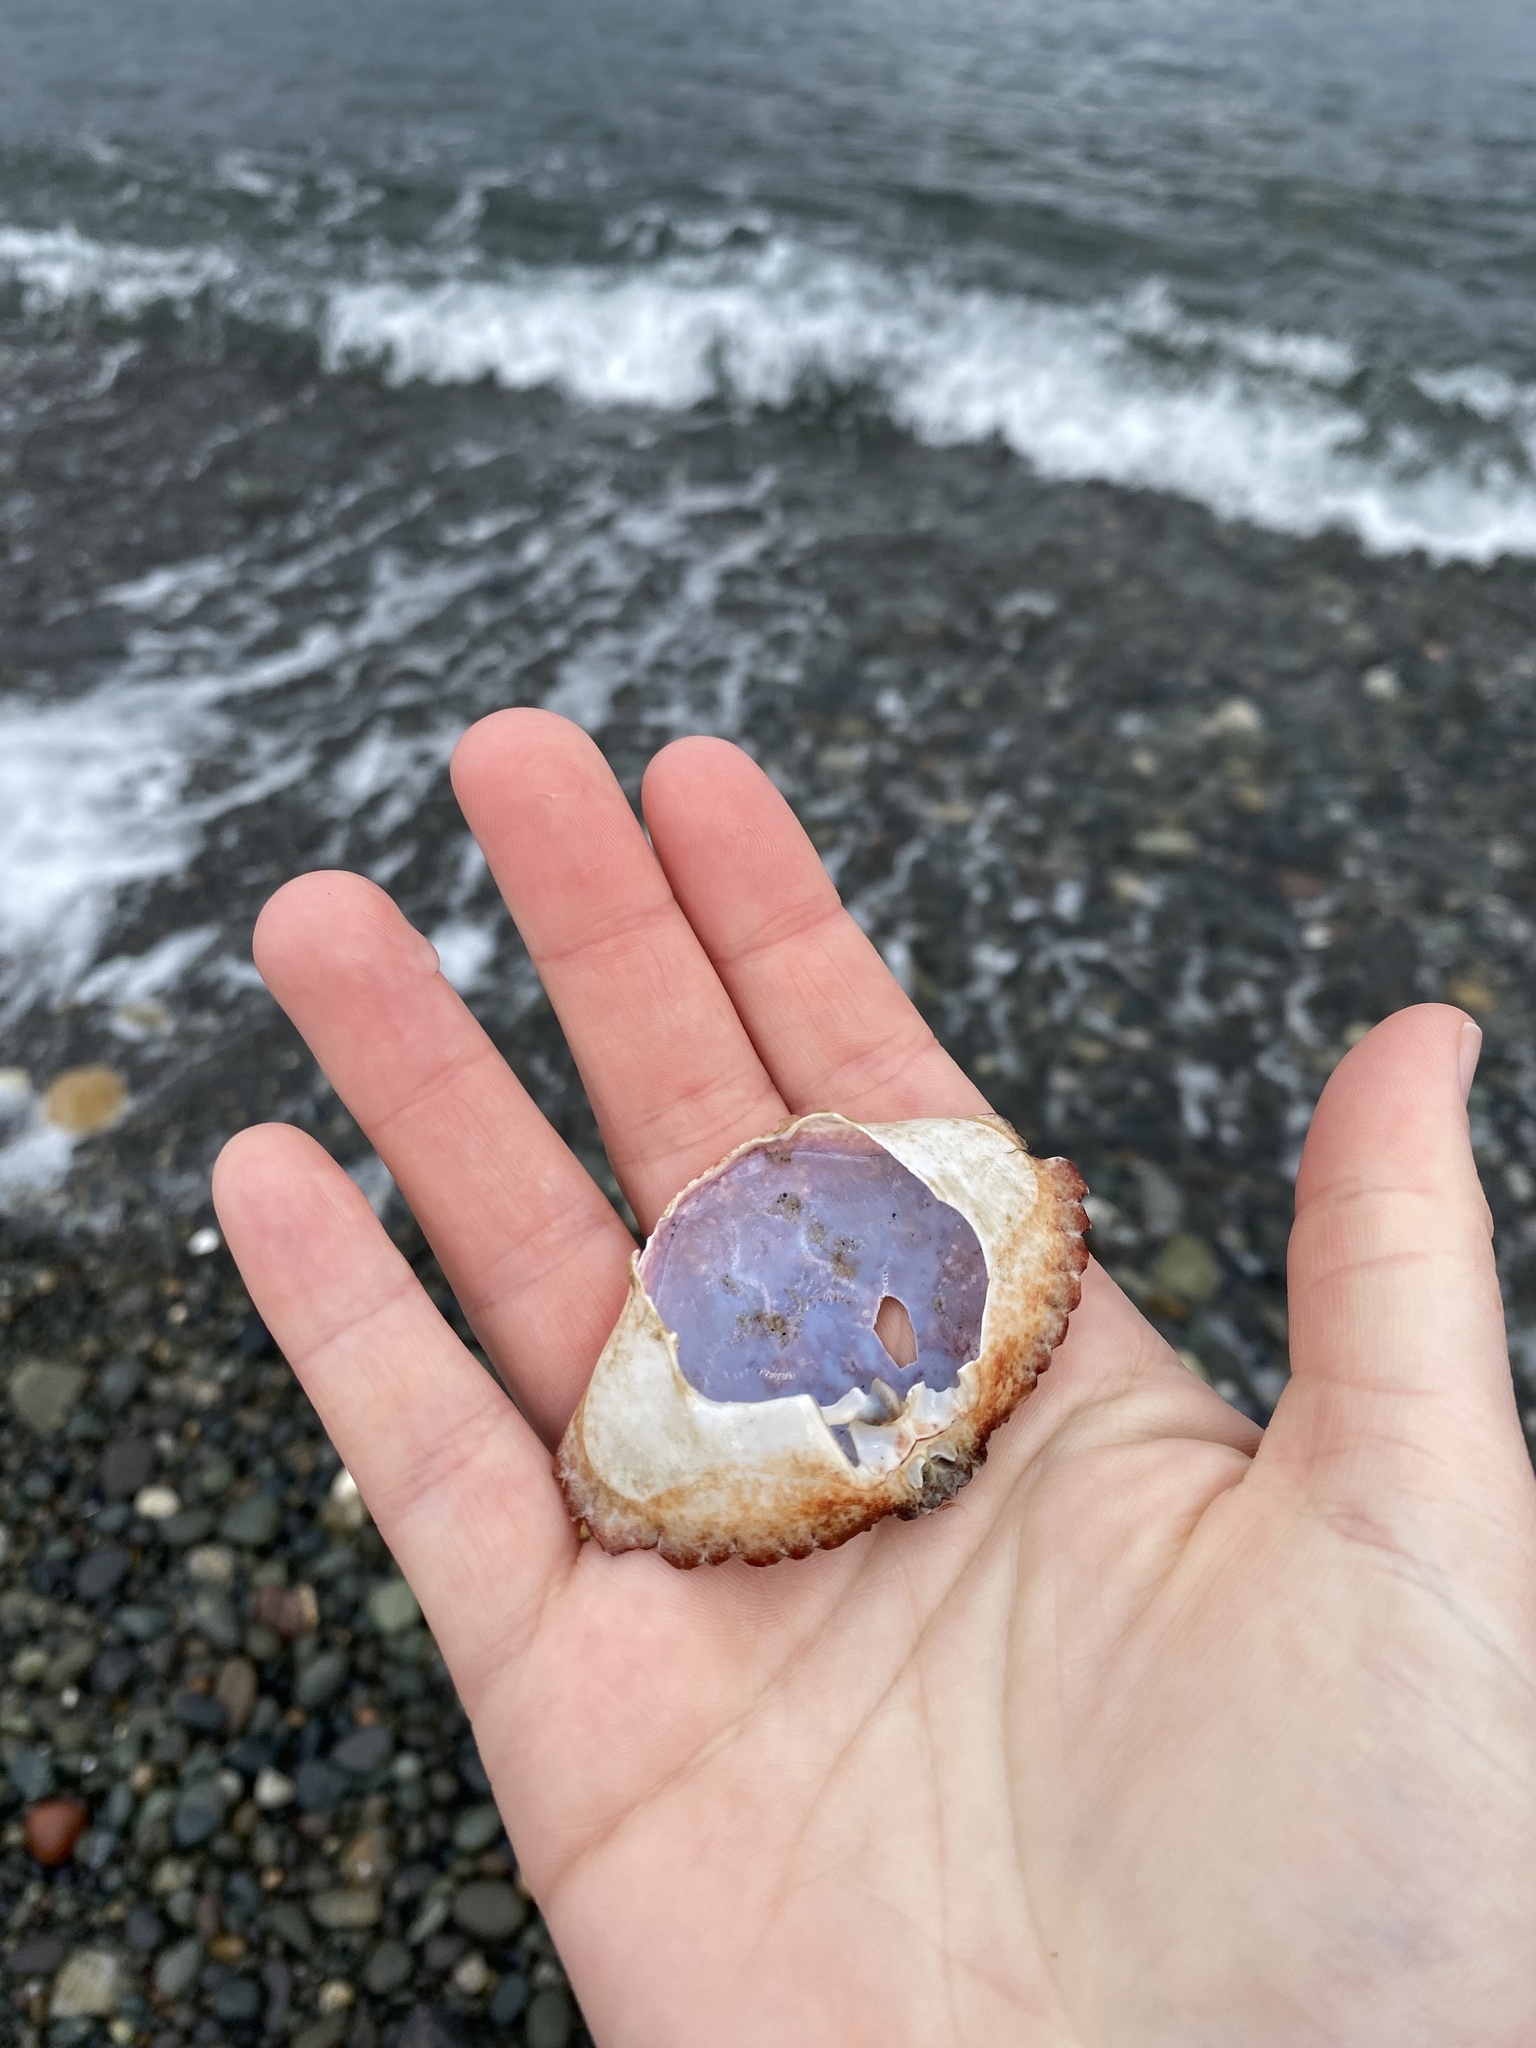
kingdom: Animalia
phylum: Arthropoda
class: Malacostraca
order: Decapoda
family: Cancridae
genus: Cancer
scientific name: Cancer productus
